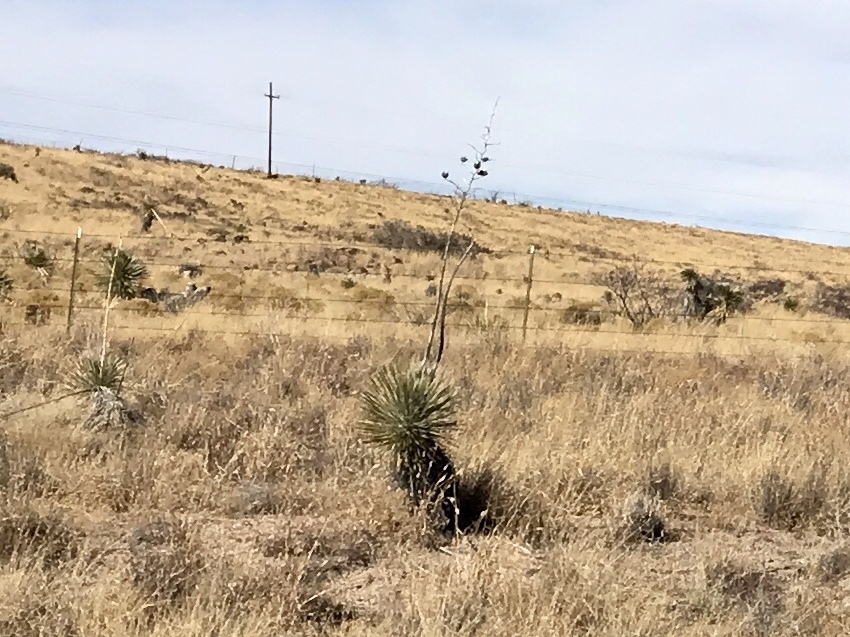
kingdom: Plantae
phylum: Tracheophyta
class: Liliopsida
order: Asparagales
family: Asparagaceae
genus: Yucca
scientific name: Yucca elata
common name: Palmella
